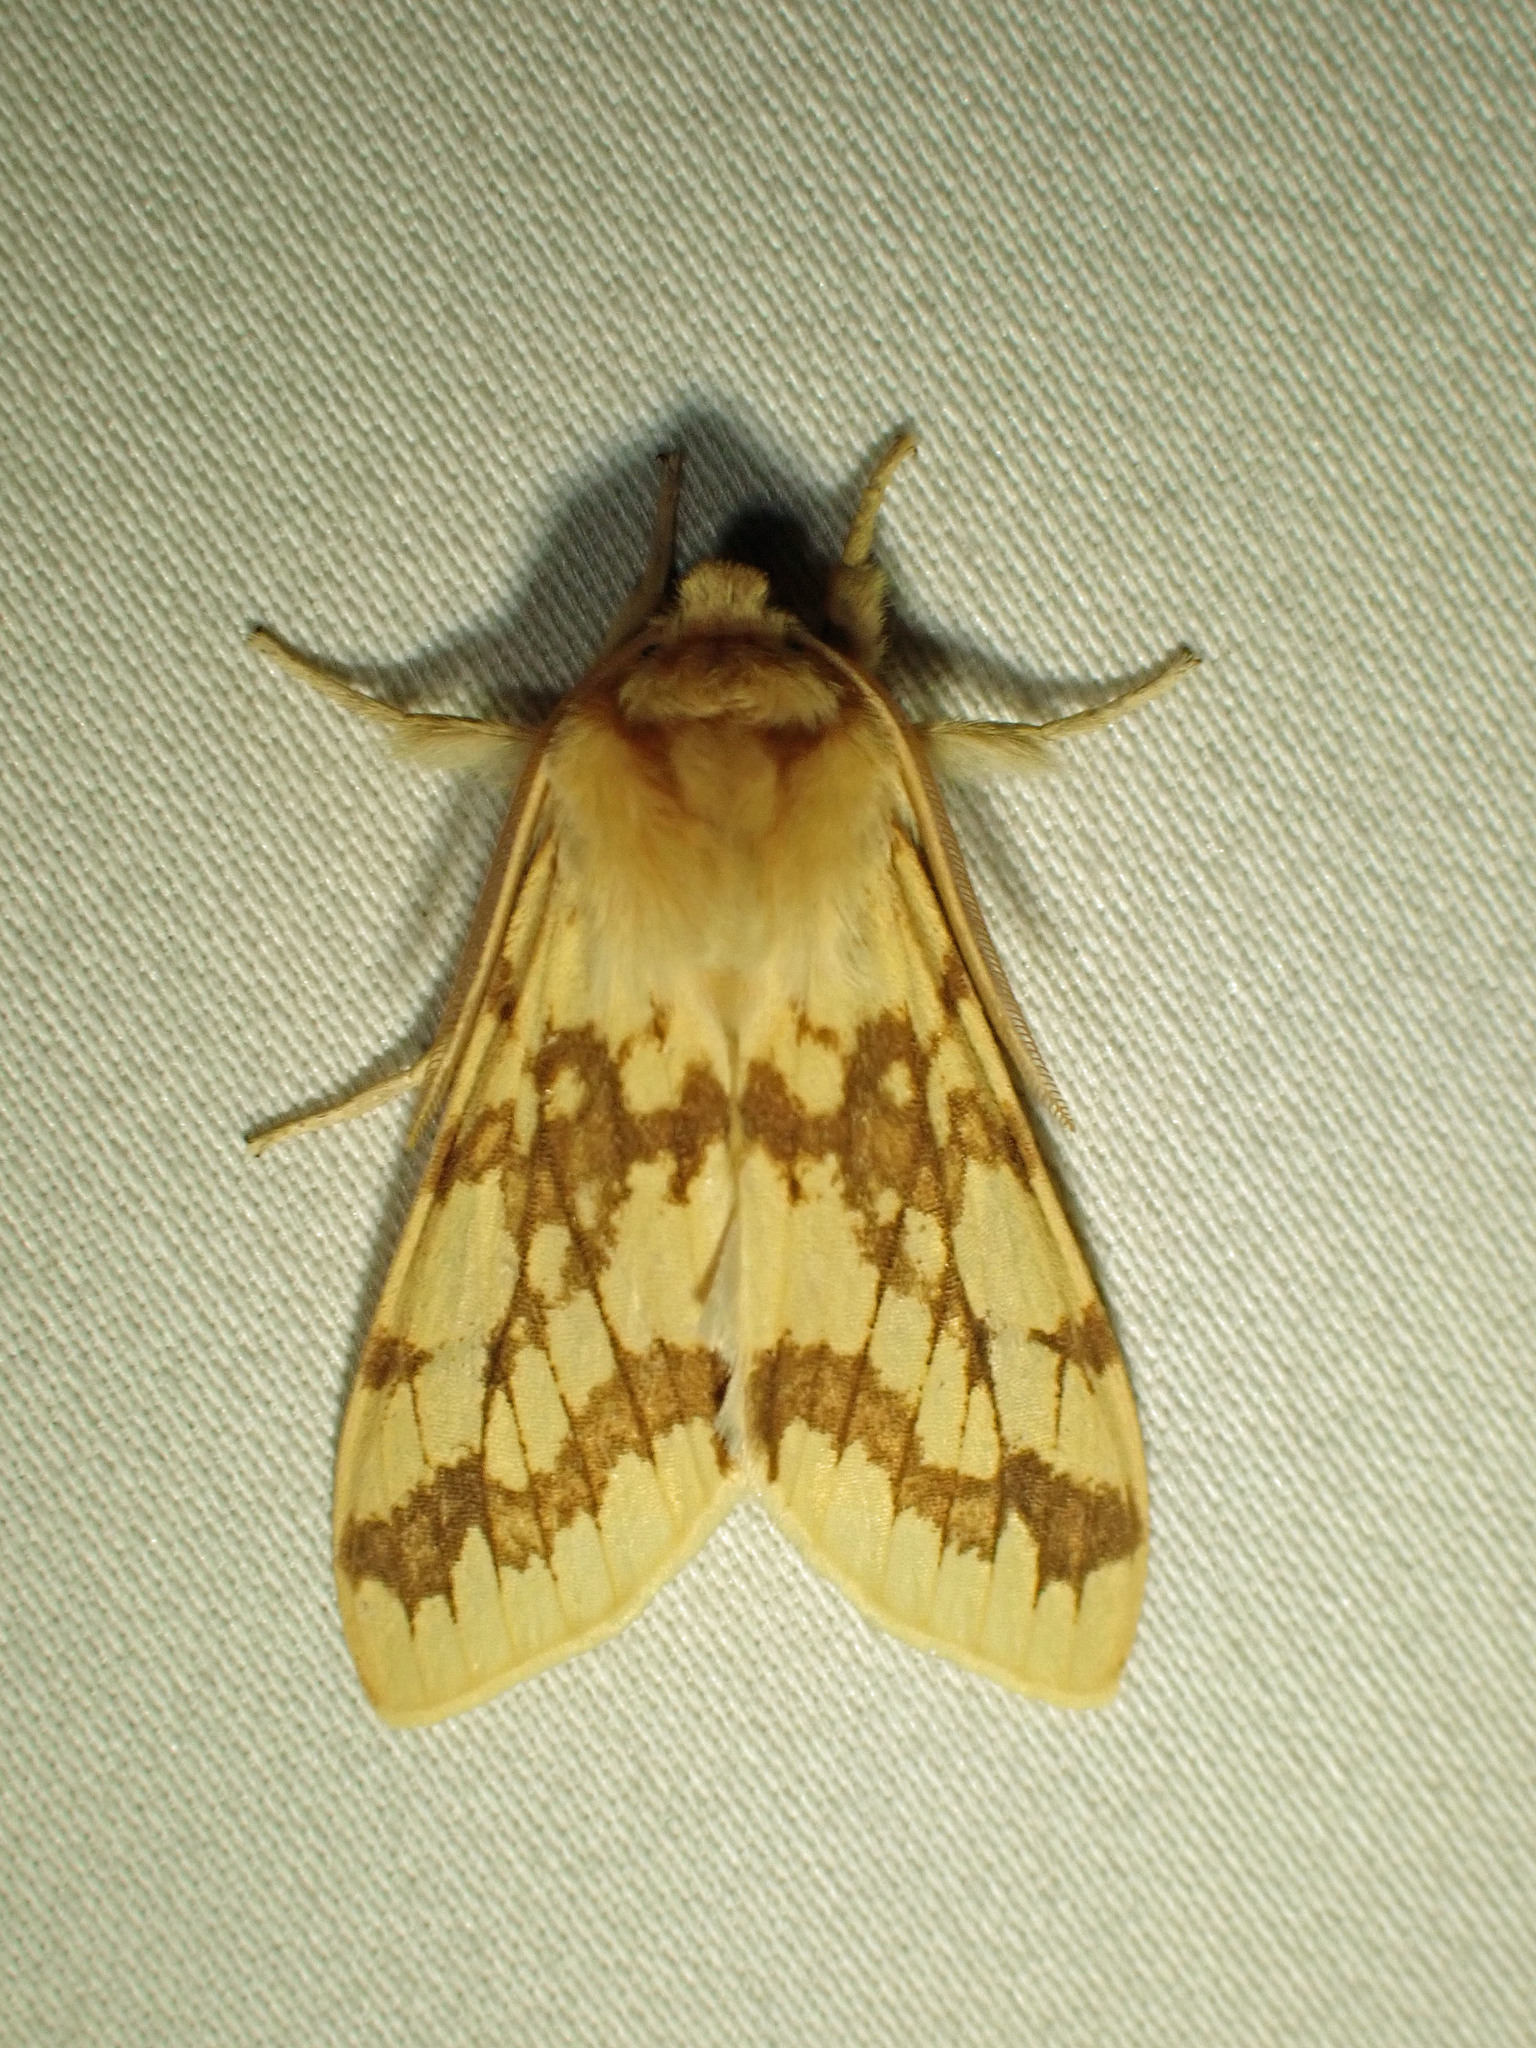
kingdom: Animalia
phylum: Arthropoda
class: Insecta
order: Lepidoptera
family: Erebidae
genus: Lophocampa
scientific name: Lophocampa maculata
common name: Spotted tussock moth
